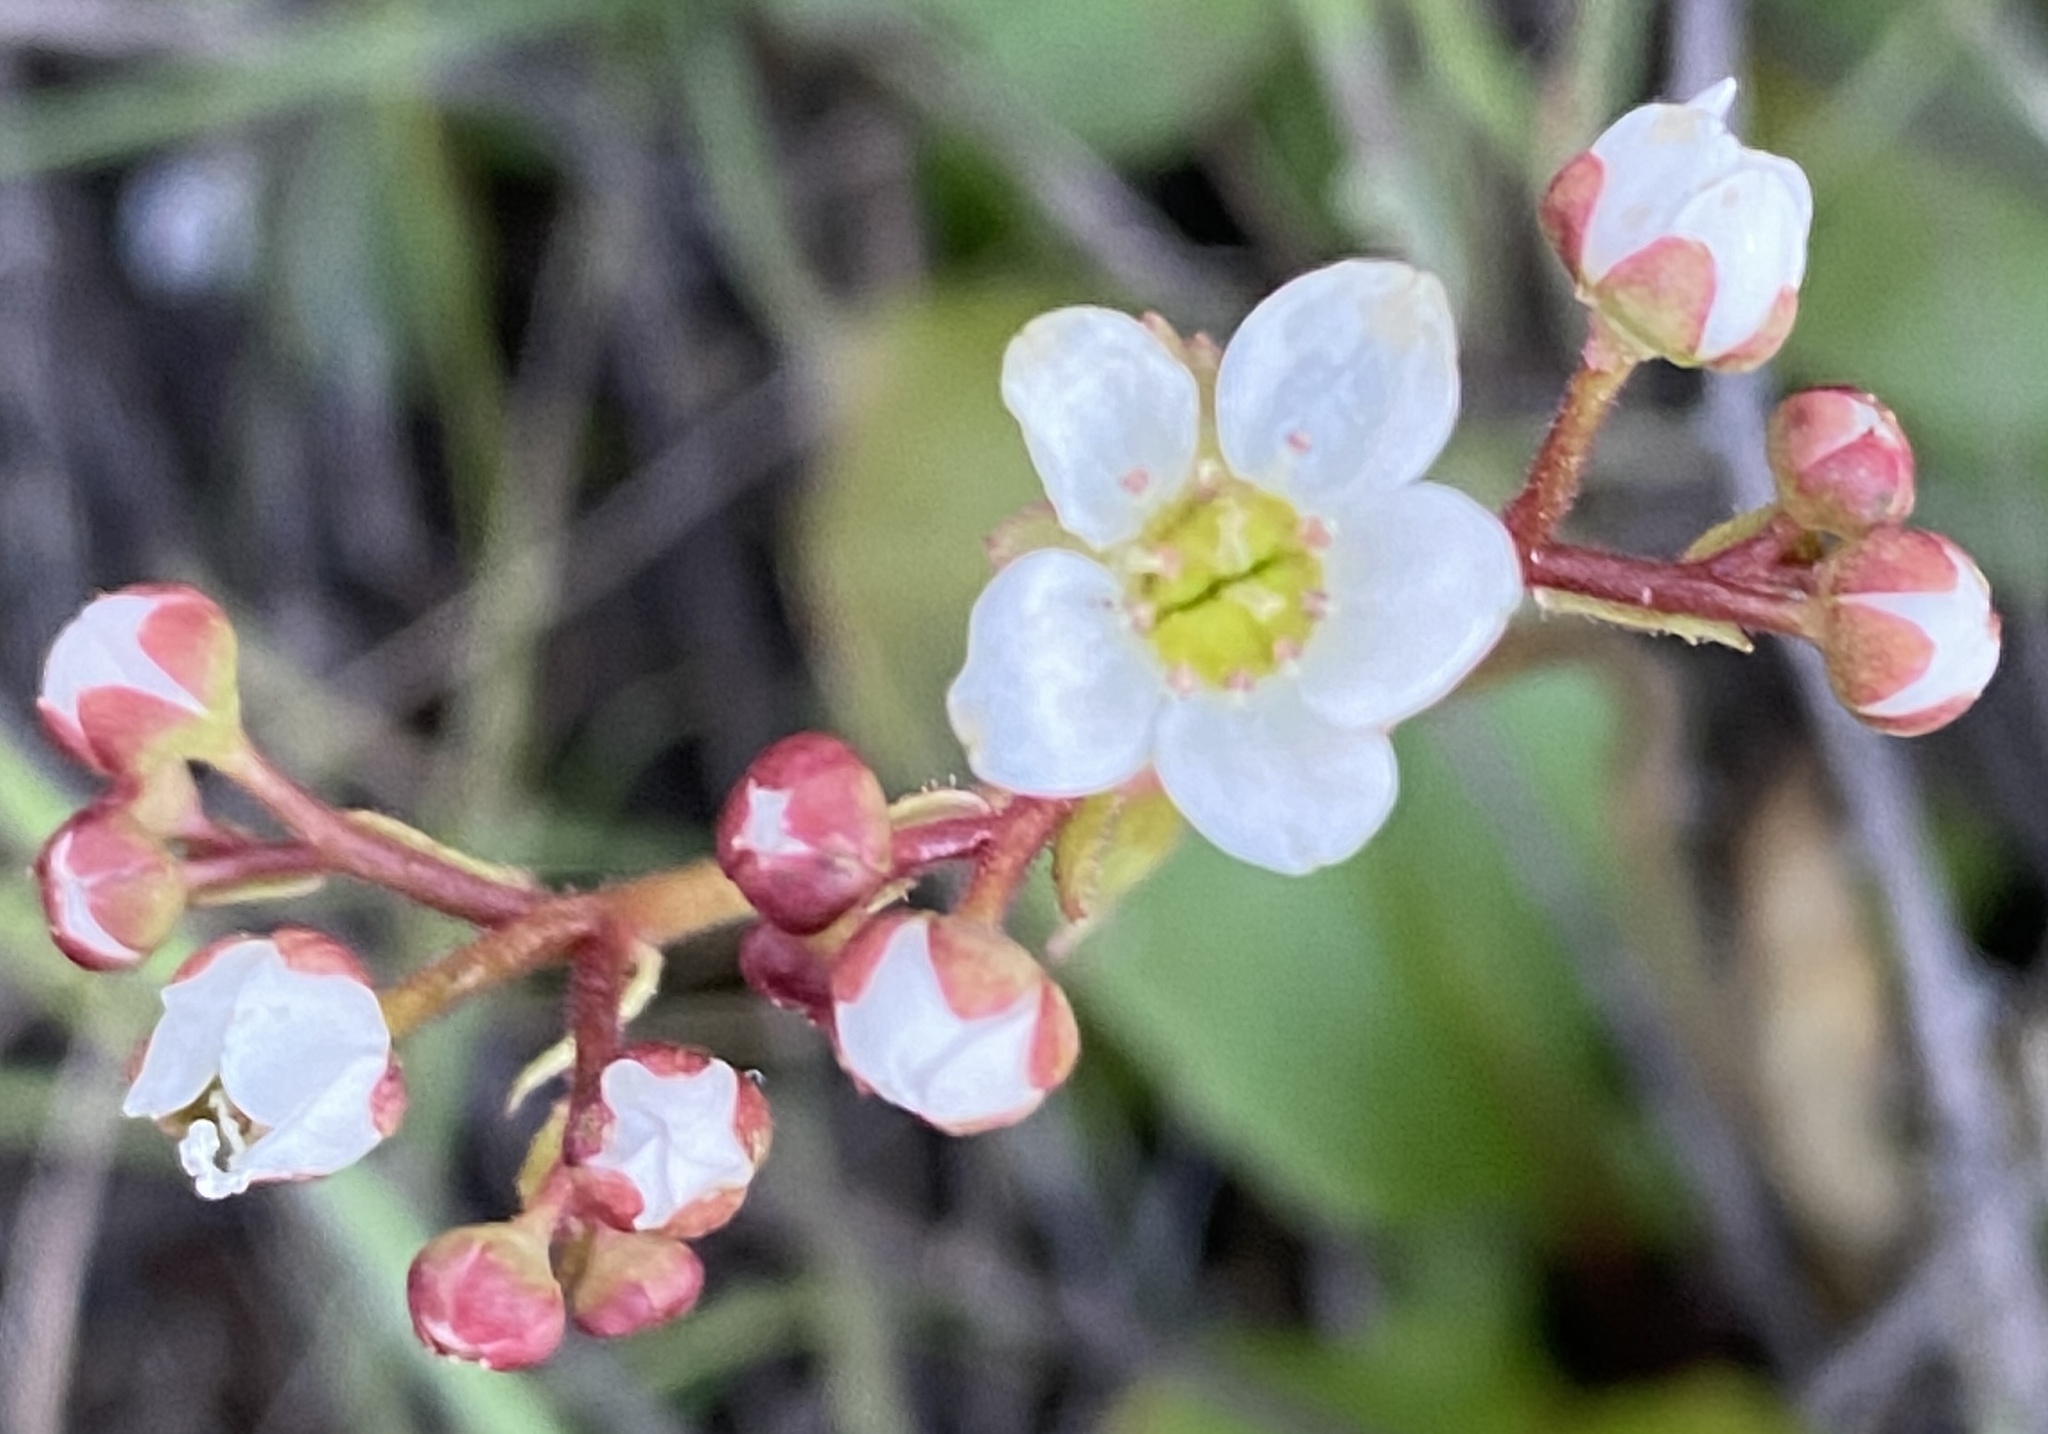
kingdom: Plantae
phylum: Tracheophyta
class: Magnoliopsida
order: Saxifragales
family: Saxifragaceae
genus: Micranthes
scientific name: Micranthes californica
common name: California saxifrage
